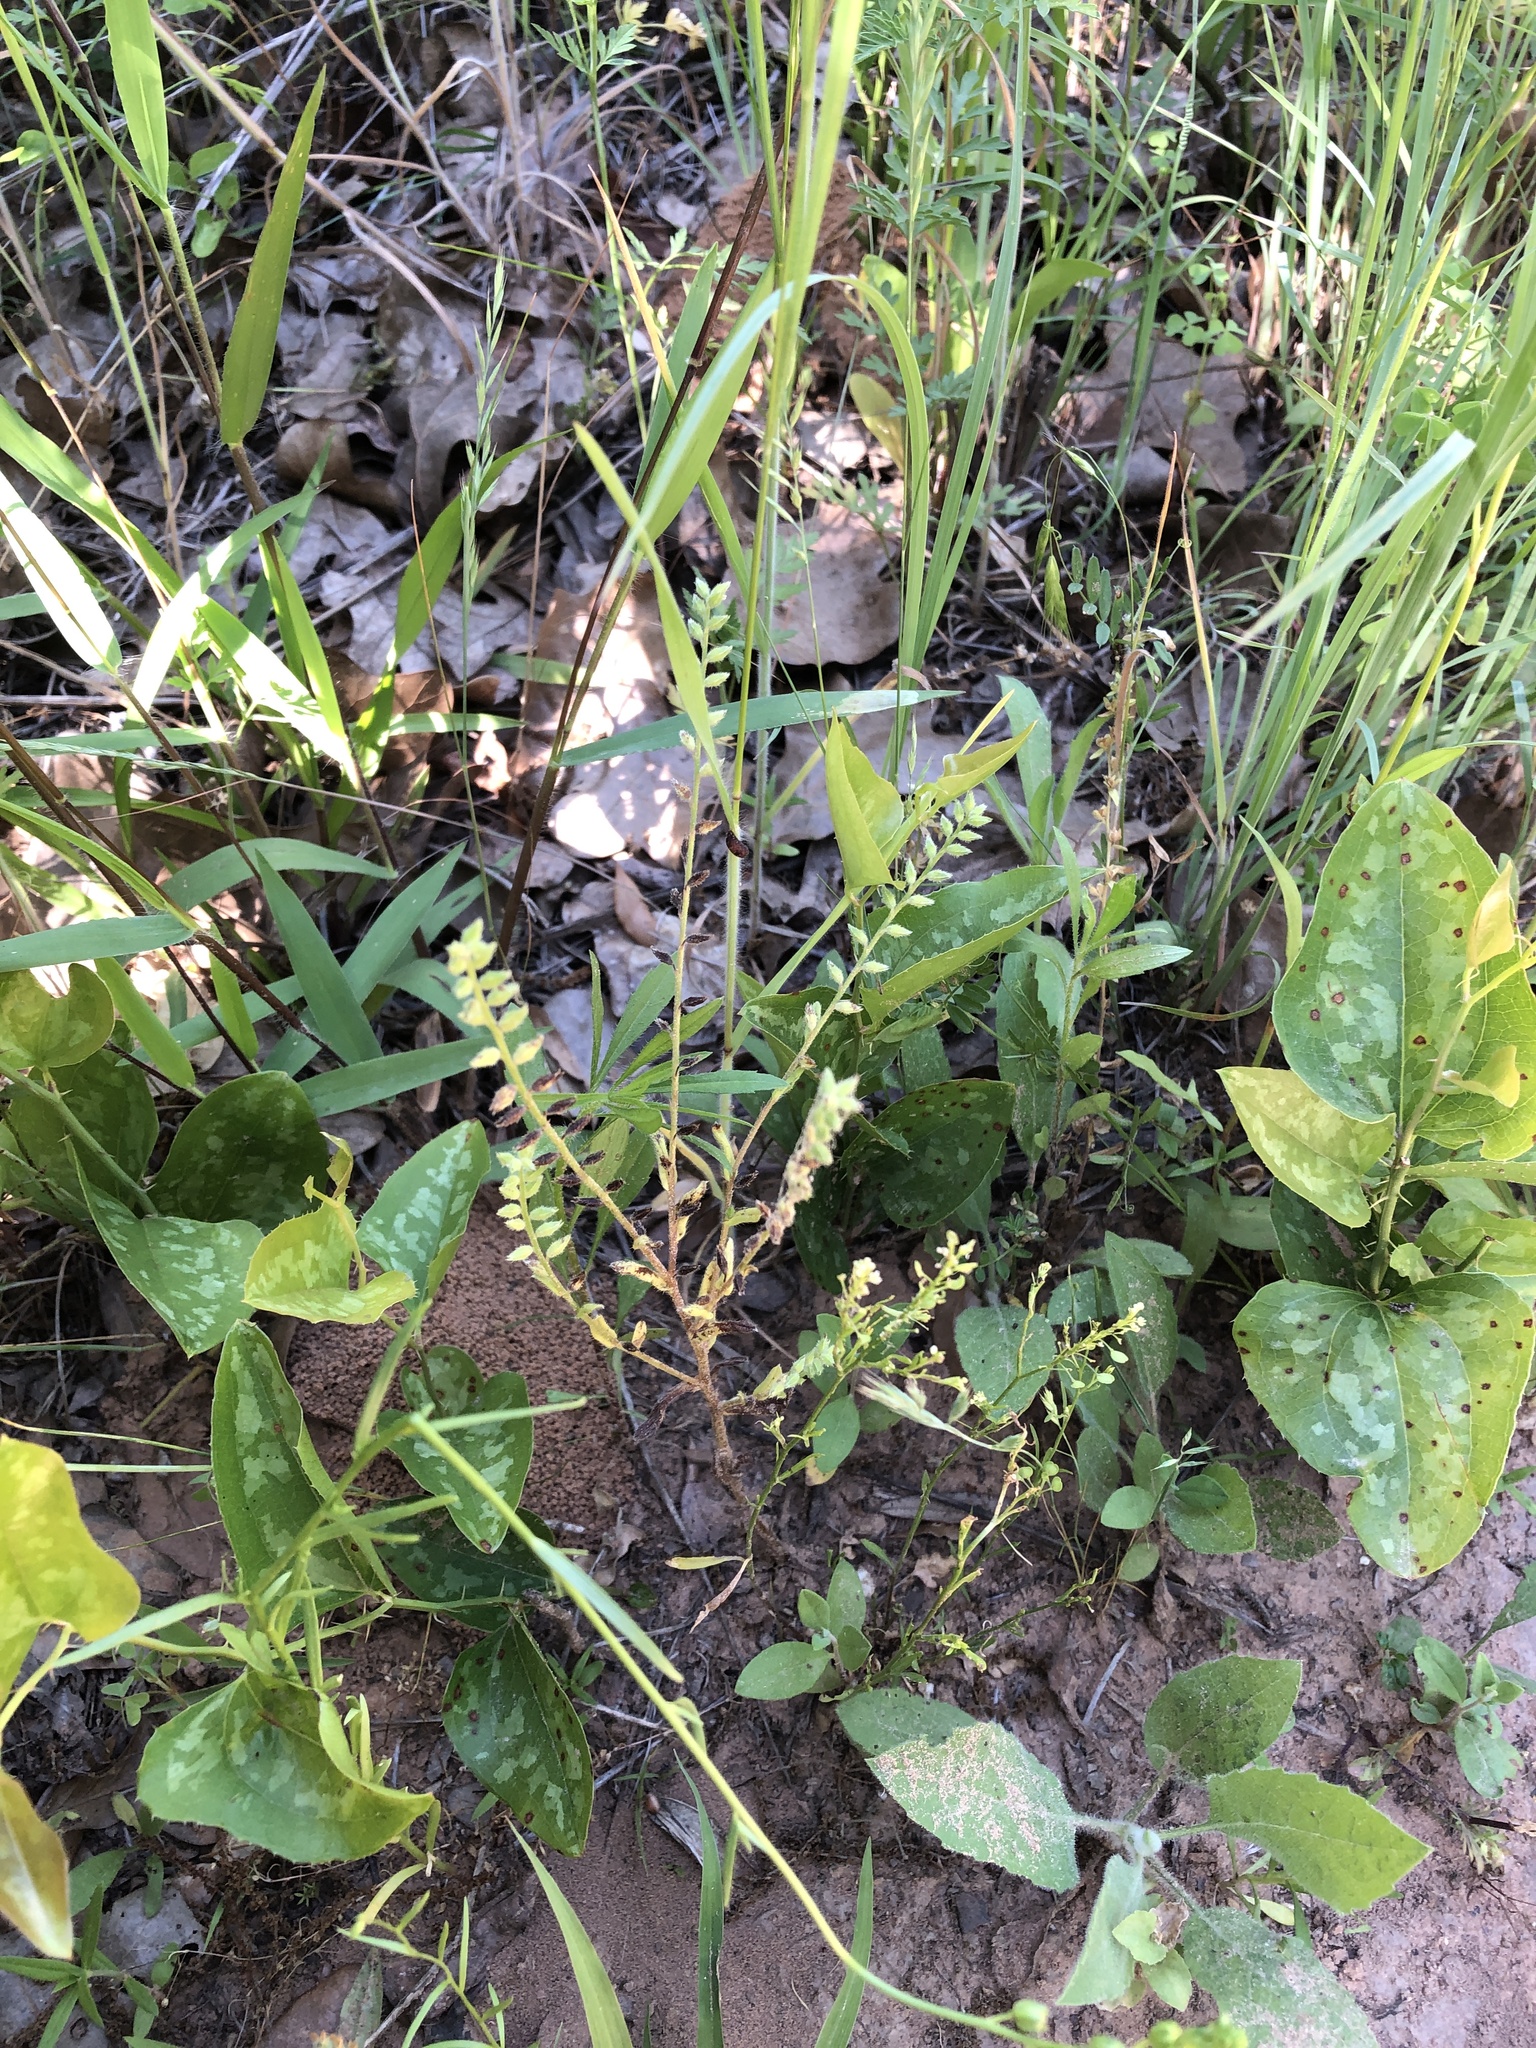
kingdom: Plantae
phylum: Tracheophyta
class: Magnoliopsida
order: Boraginales
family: Boraginaceae
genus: Myosotis
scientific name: Myosotis verna
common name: Early forget-me-not
